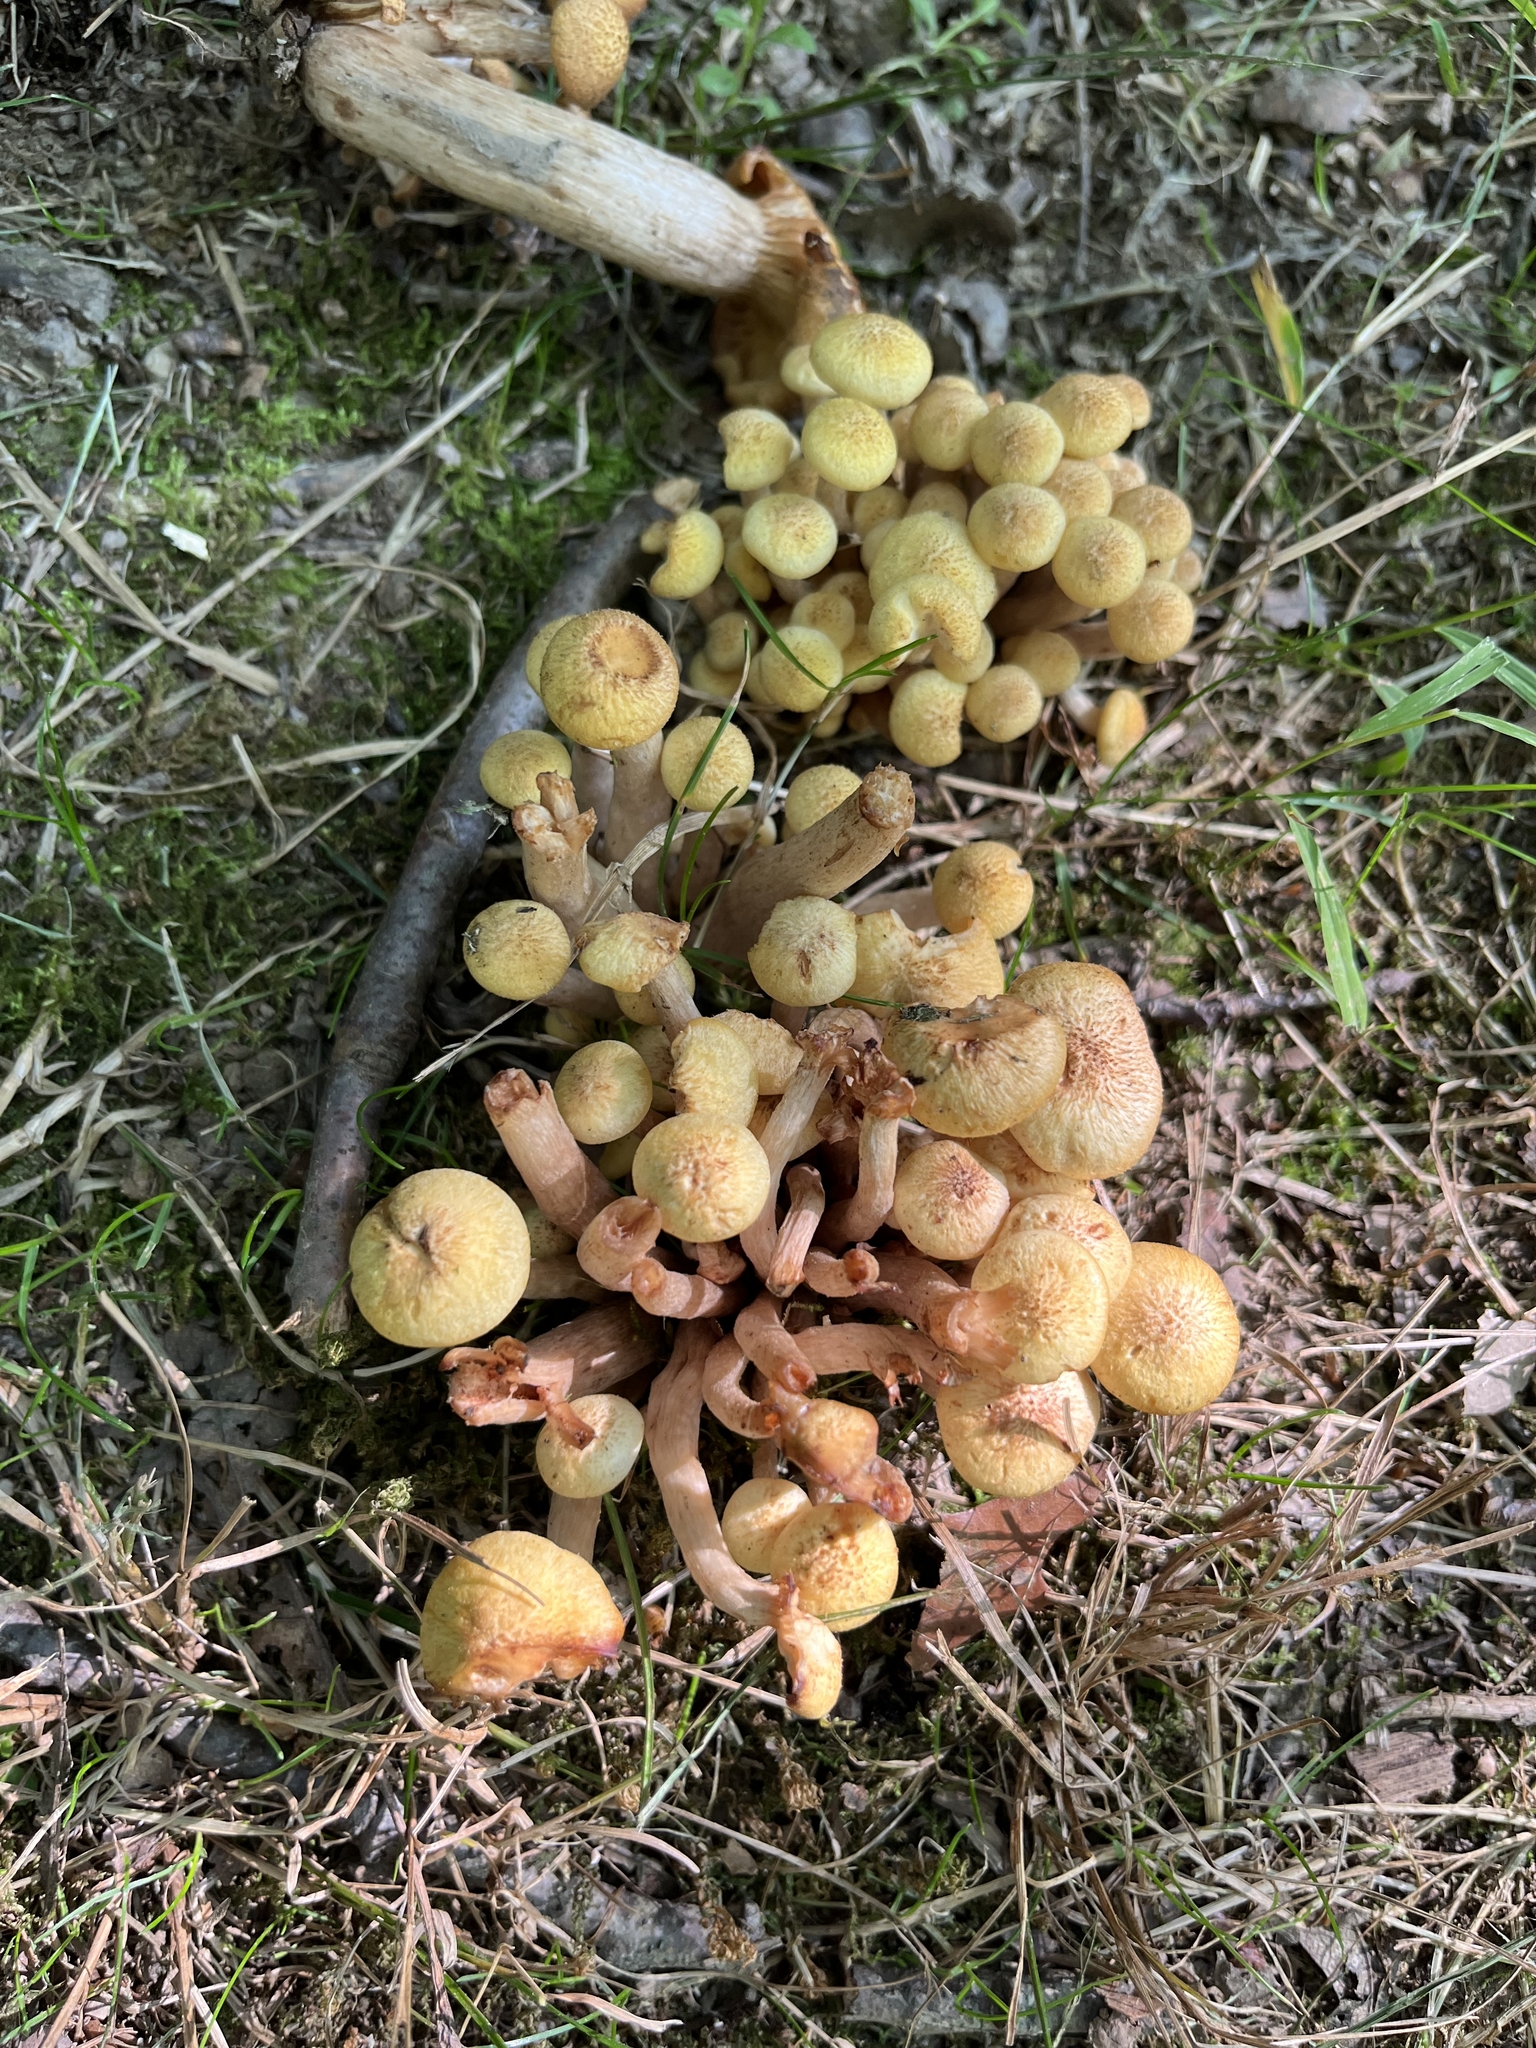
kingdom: Fungi
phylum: Basidiomycota
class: Agaricomycetes
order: Agaricales
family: Physalacriaceae
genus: Desarmillaria
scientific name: Desarmillaria caespitosa
